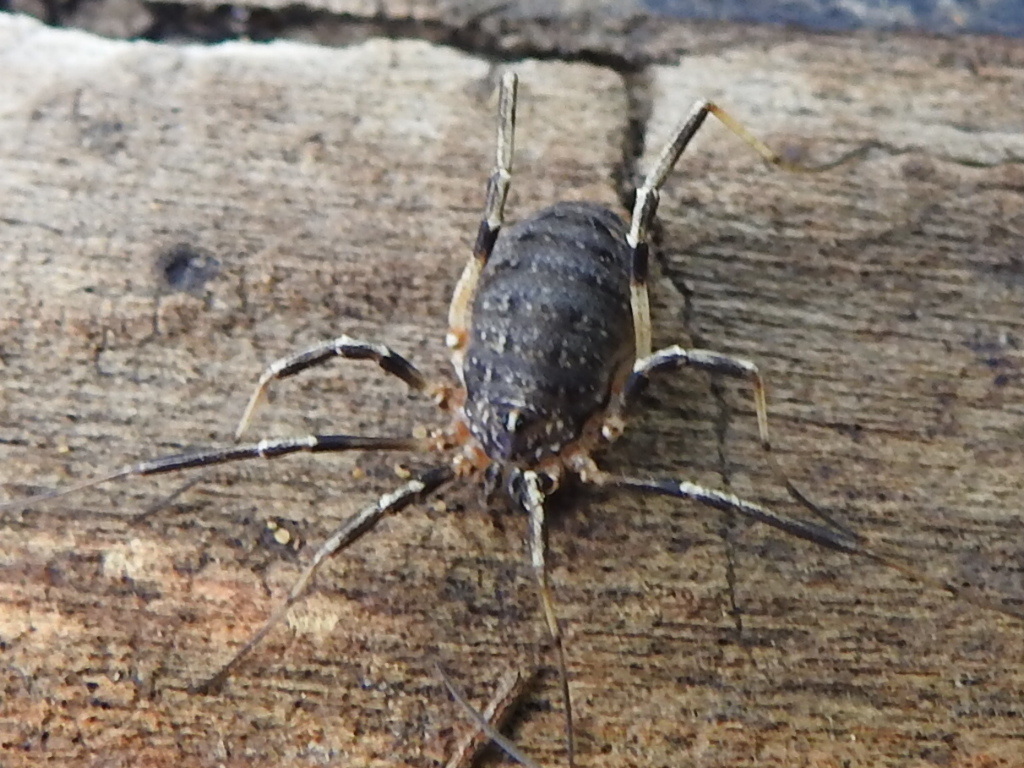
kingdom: Animalia
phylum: Arthropoda
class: Arachnida
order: Opiliones
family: Sclerosomatidae
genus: Eumesosoma
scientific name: Eumesosoma roeweri
